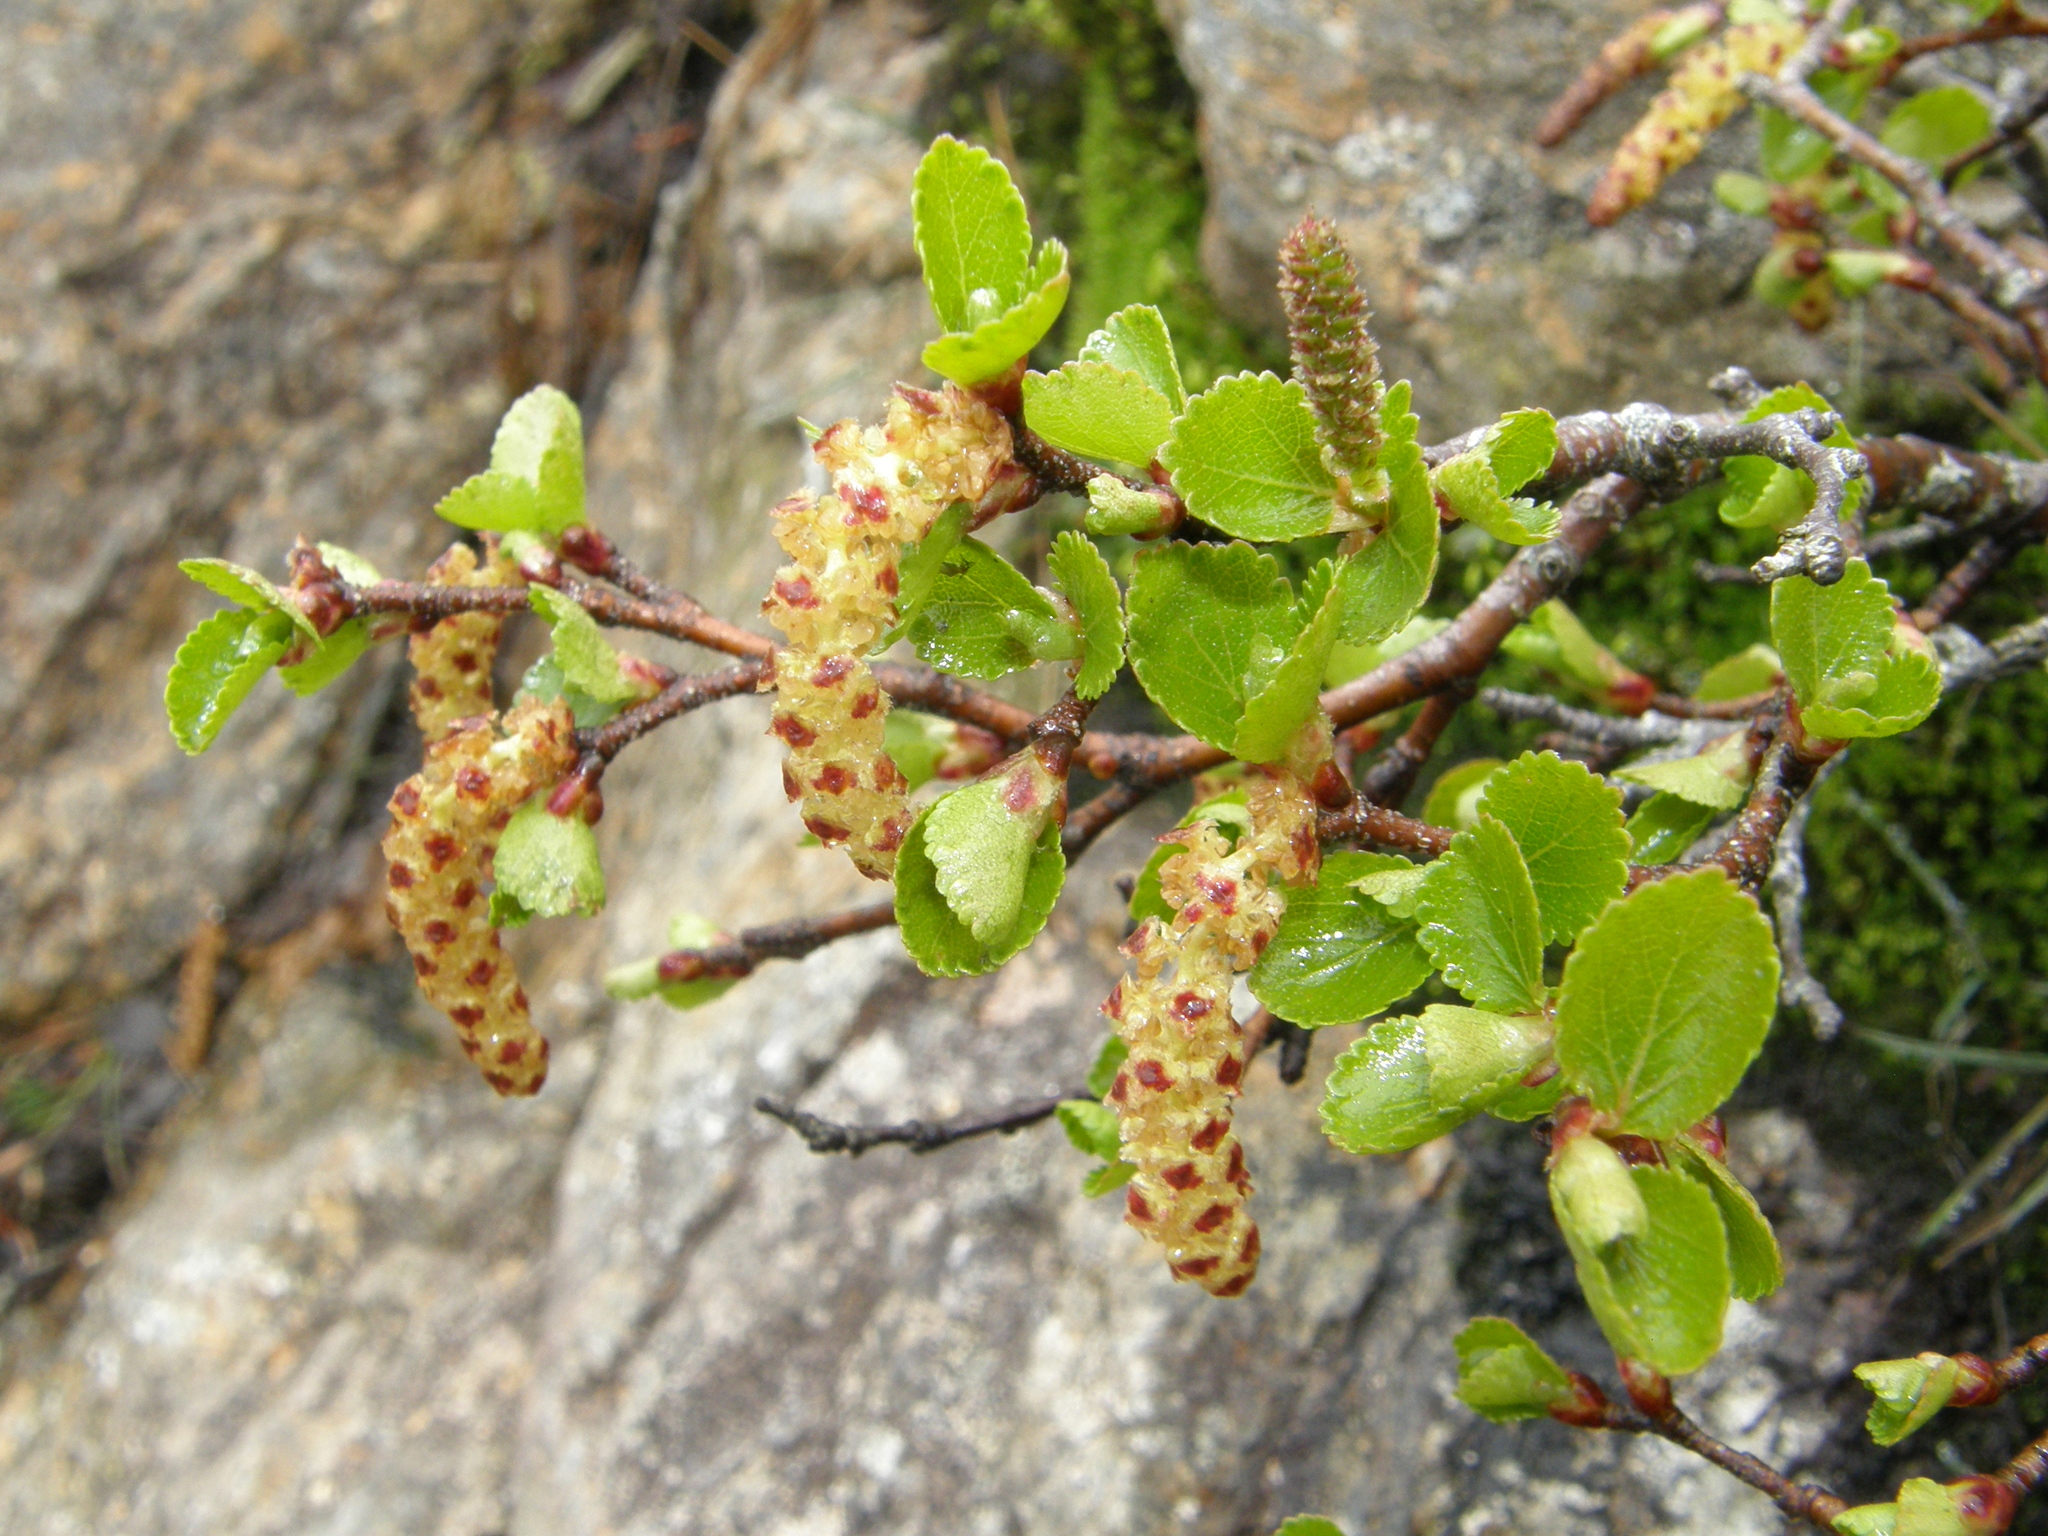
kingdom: Plantae
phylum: Tracheophyta
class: Magnoliopsida
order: Fagales
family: Betulaceae
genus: Betula
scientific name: Betula glandulosa
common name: Dwarf birch
